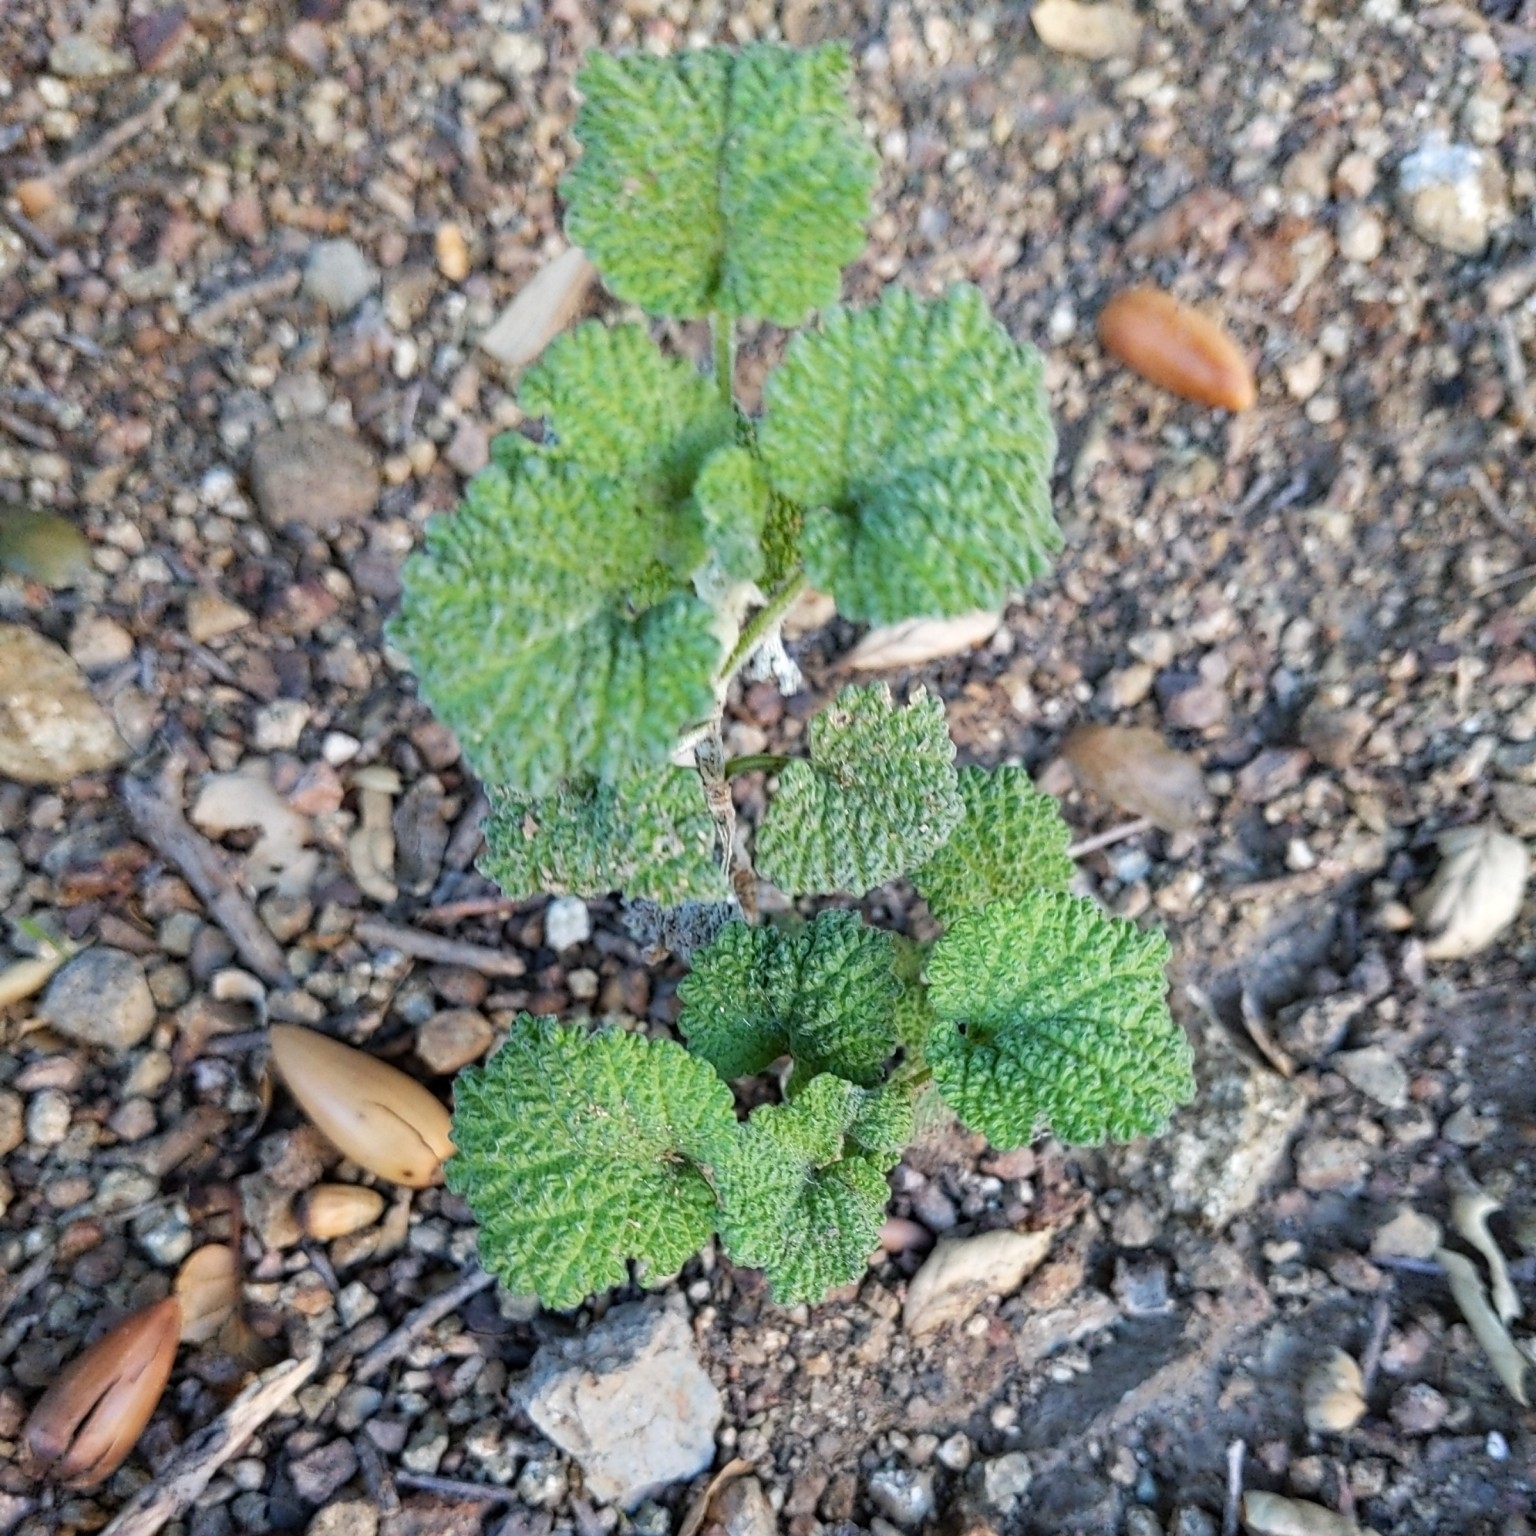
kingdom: Plantae
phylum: Tracheophyta
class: Magnoliopsida
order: Lamiales
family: Lamiaceae
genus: Marrubium
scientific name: Marrubium vulgare
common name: Horehound
